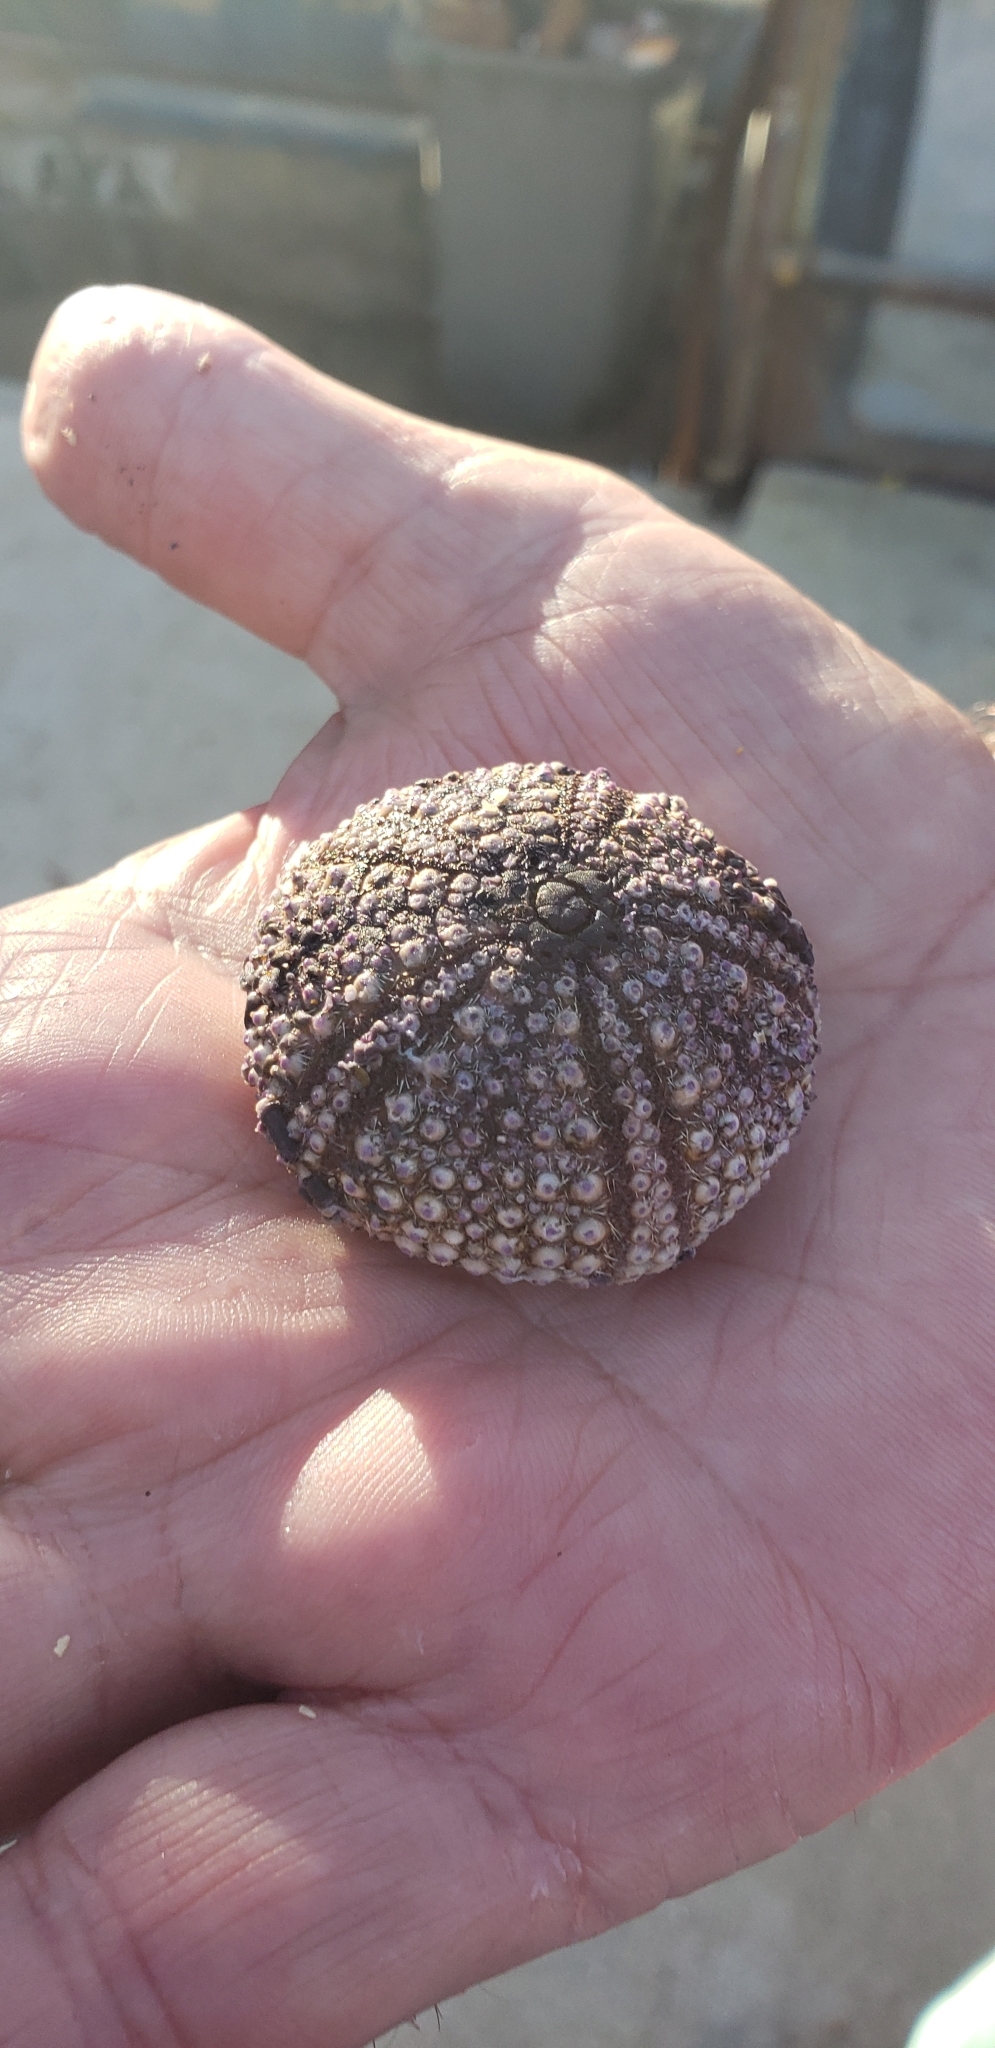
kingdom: Animalia
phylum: Echinodermata
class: Echinoidea
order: Arbacioida
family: Arbaciidae
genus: Tetrapygus
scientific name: Tetrapygus niger
